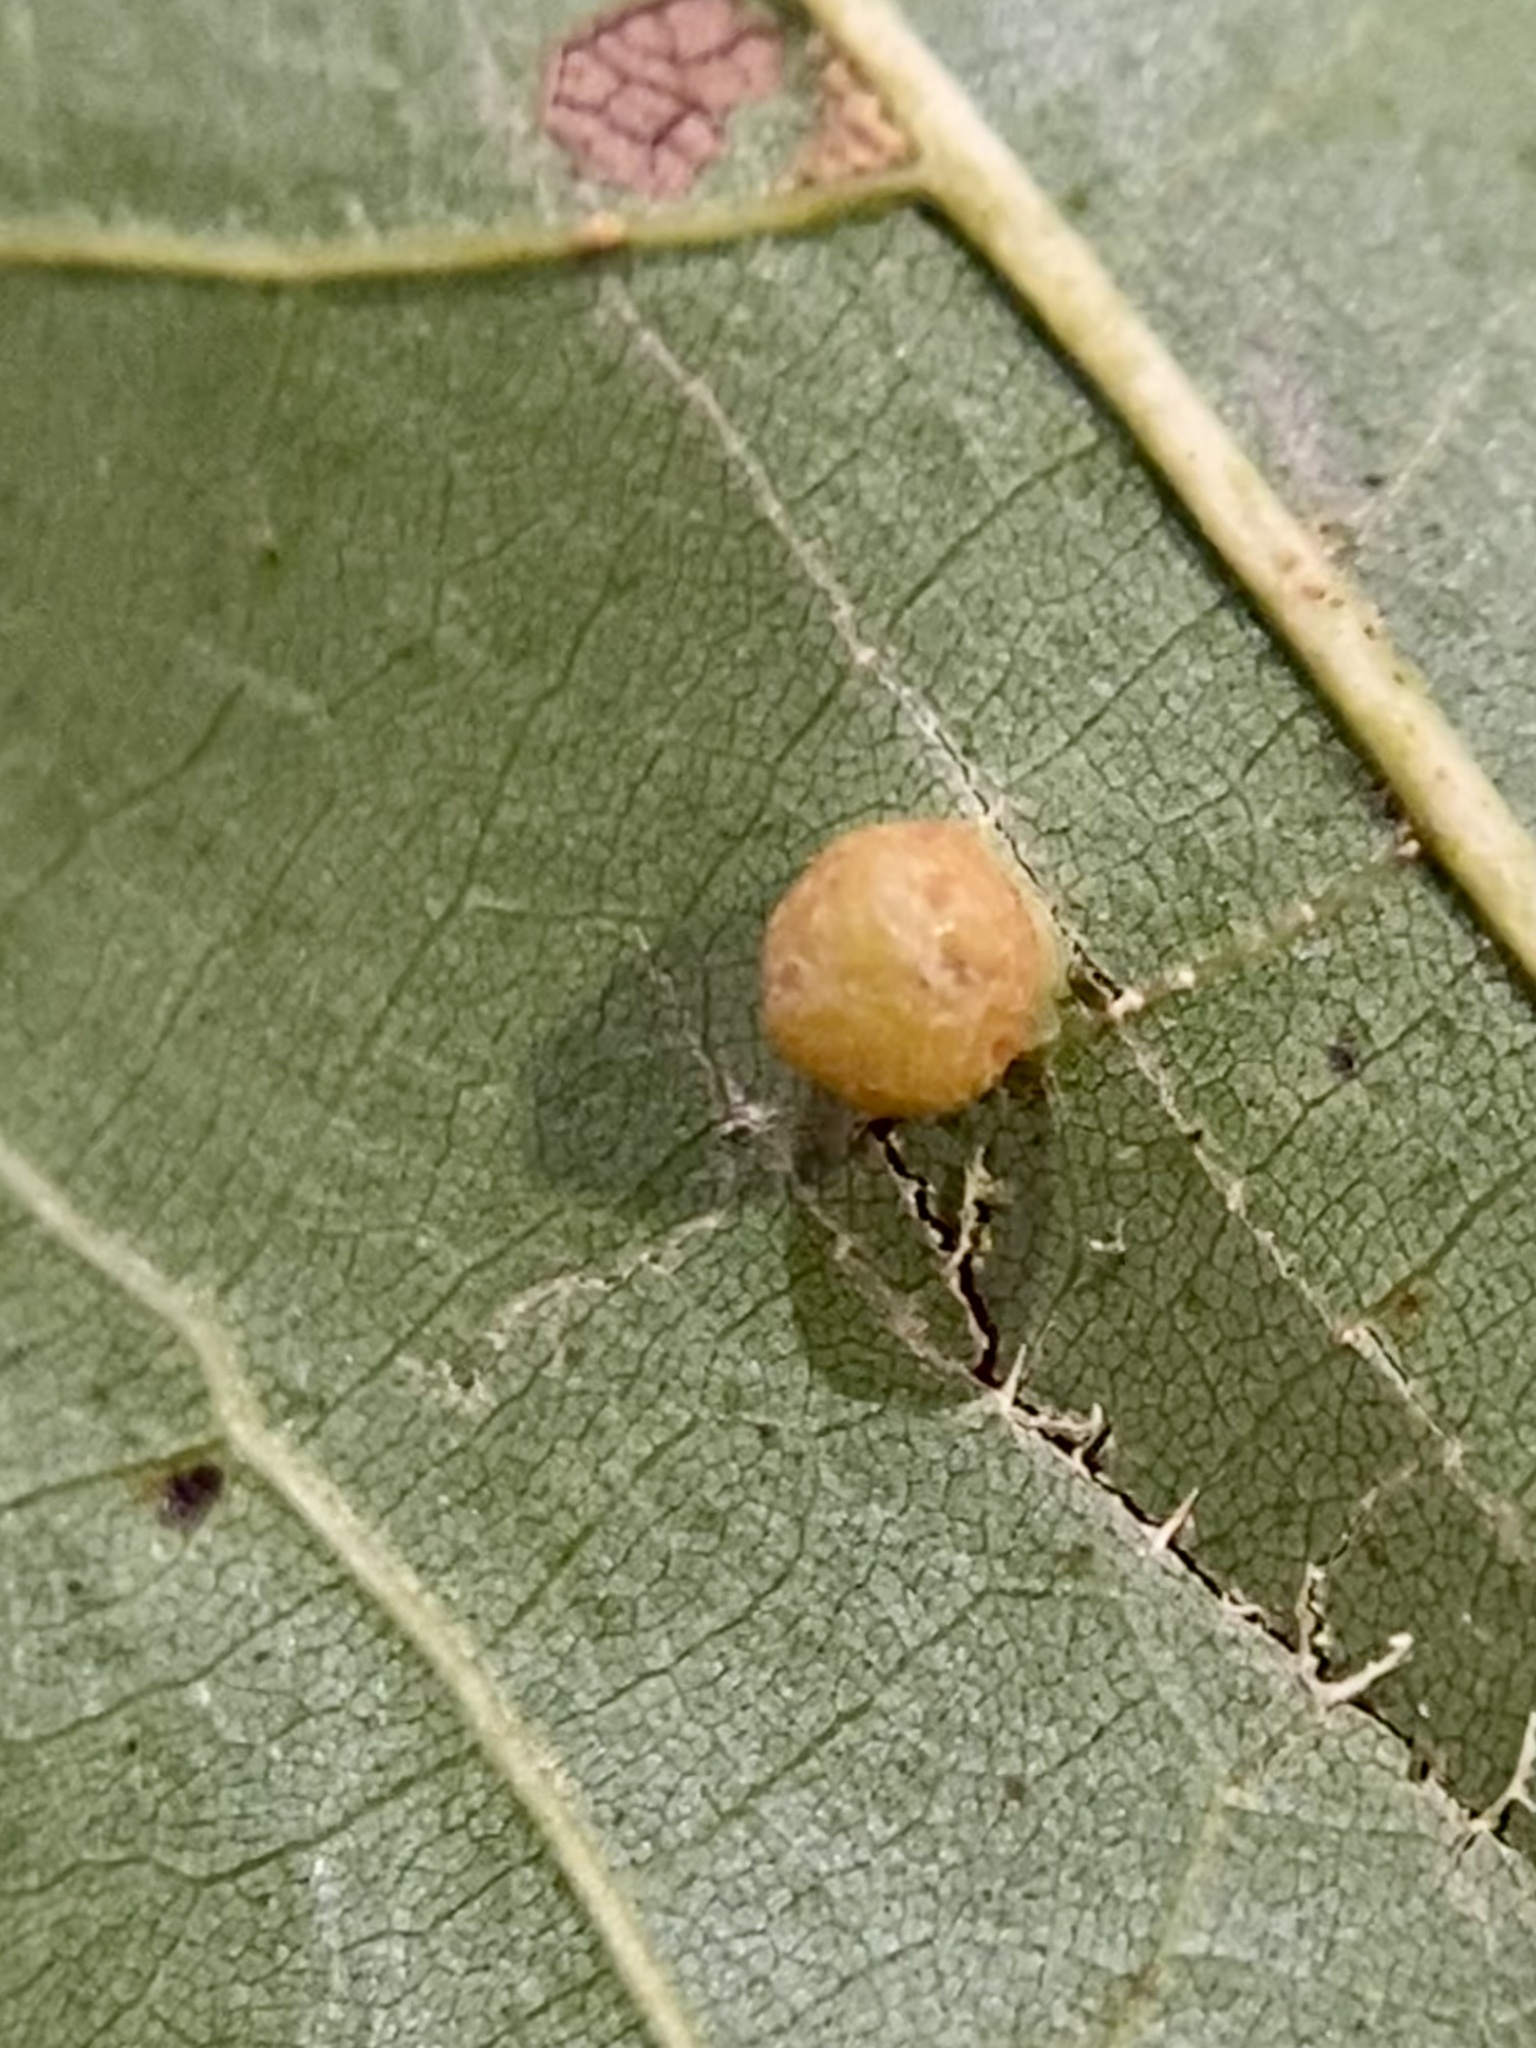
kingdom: Animalia
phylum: Arthropoda
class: Insecta
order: Diptera
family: Cecidomyiidae
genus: Polystepha
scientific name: Polystepha globosa
